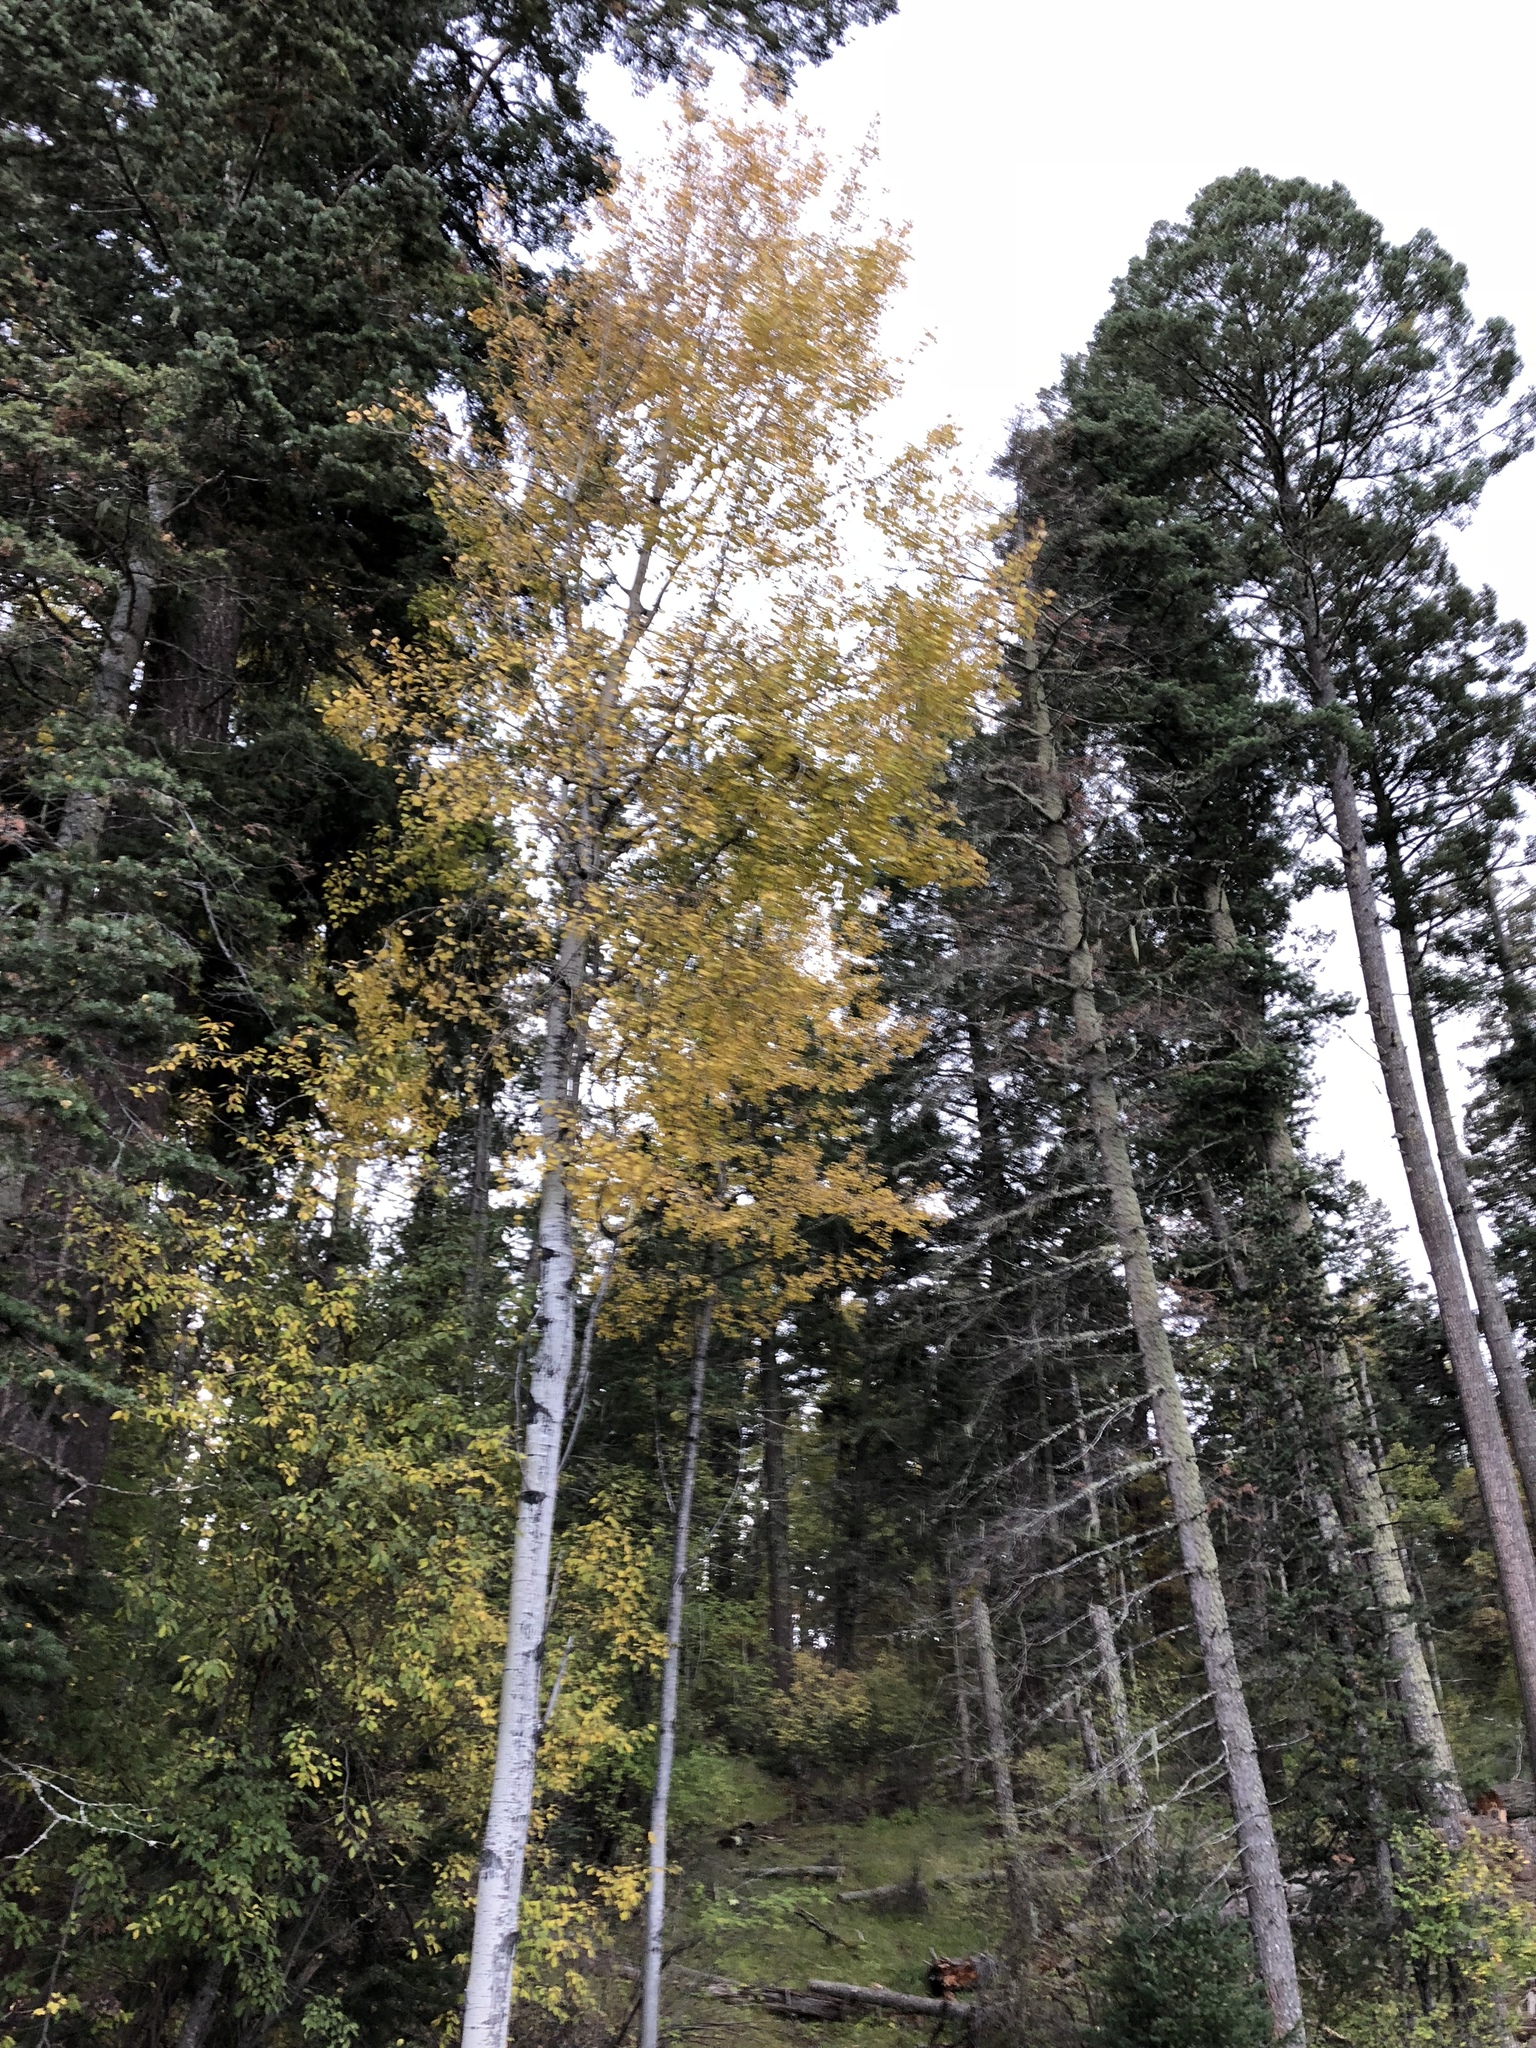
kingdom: Plantae
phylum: Tracheophyta
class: Magnoliopsida
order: Malpighiales
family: Salicaceae
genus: Populus
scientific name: Populus tremuloides
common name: Quaking aspen
